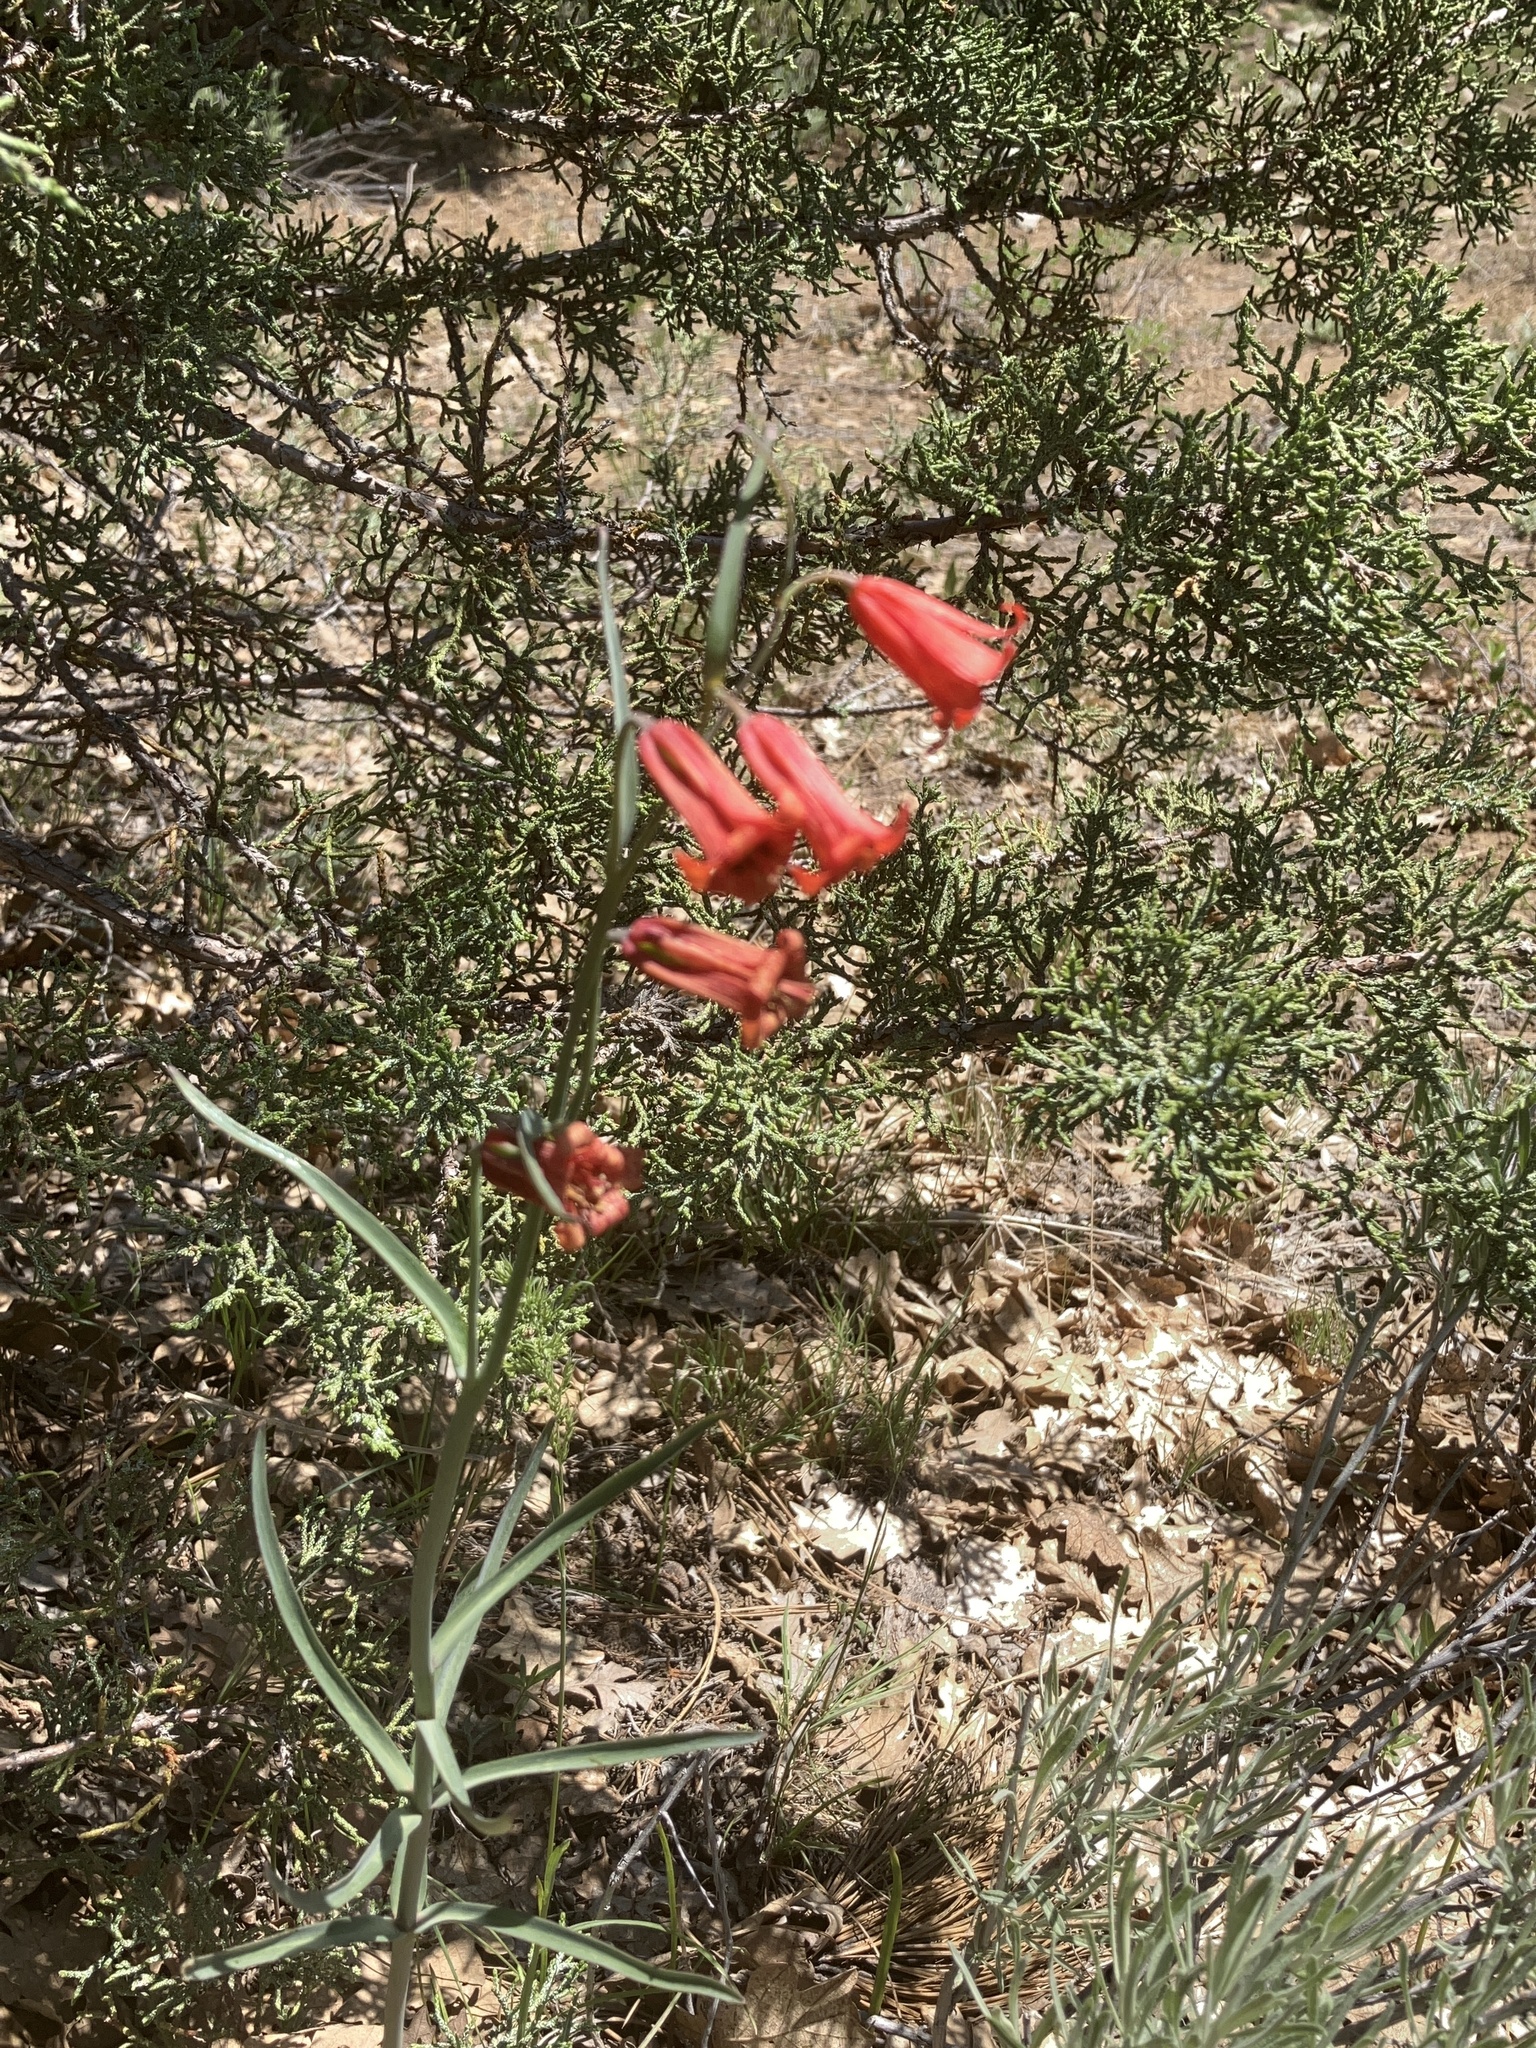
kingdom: Plantae
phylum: Tracheophyta
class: Liliopsida
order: Liliales
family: Liliaceae
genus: Fritillaria
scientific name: Fritillaria recurva
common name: Scarlet fritillary
